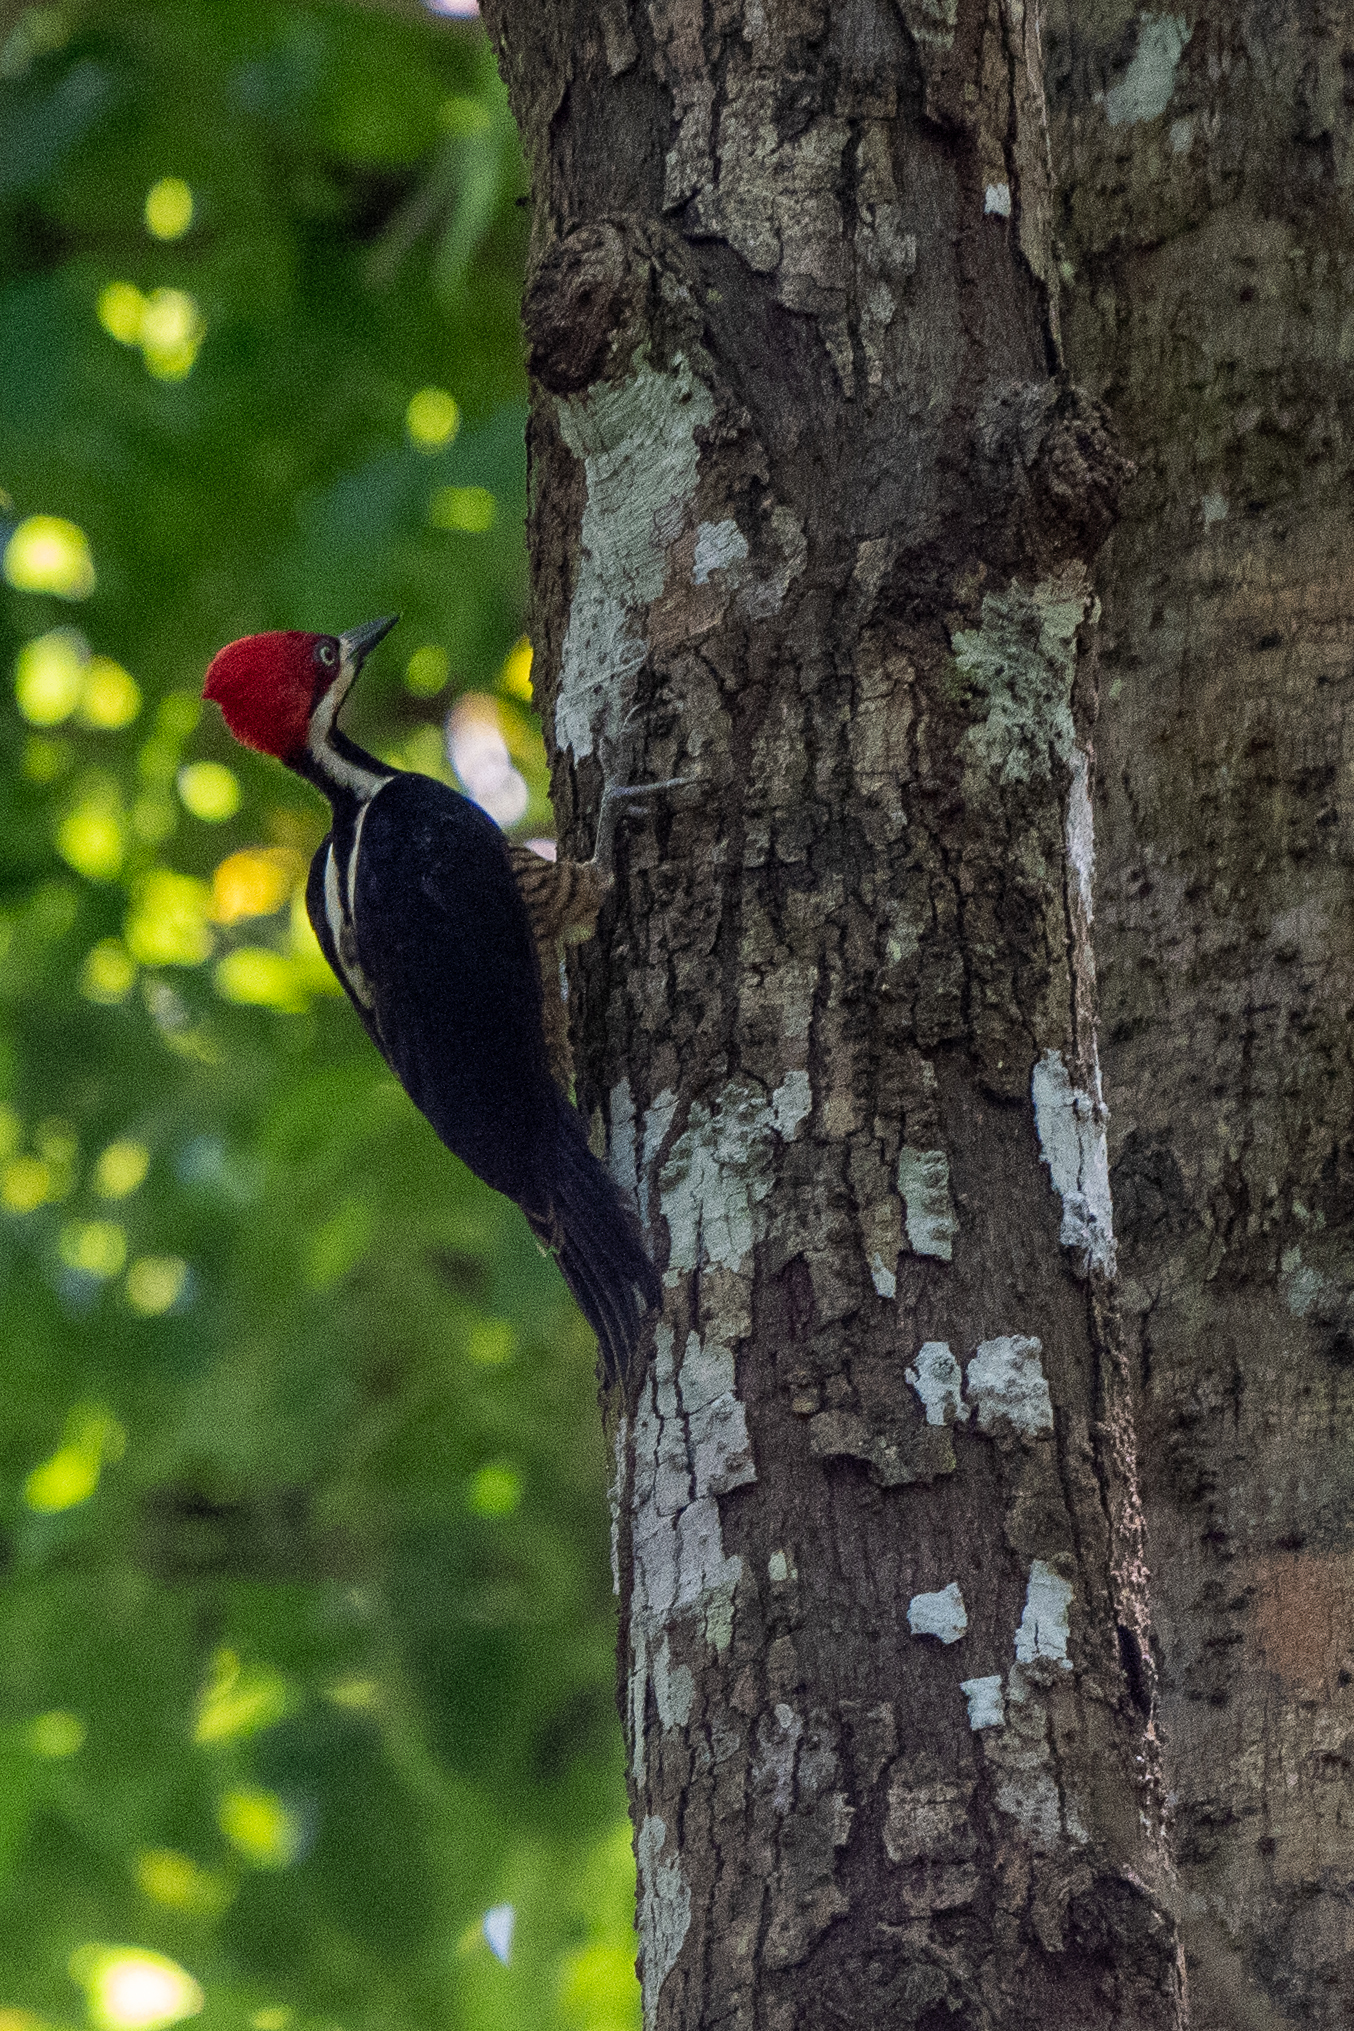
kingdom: Animalia
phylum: Chordata
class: Aves
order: Piciformes
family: Picidae
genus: Campephilus
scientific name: Campephilus melanoleucos
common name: Crimson-crested woodpecker
